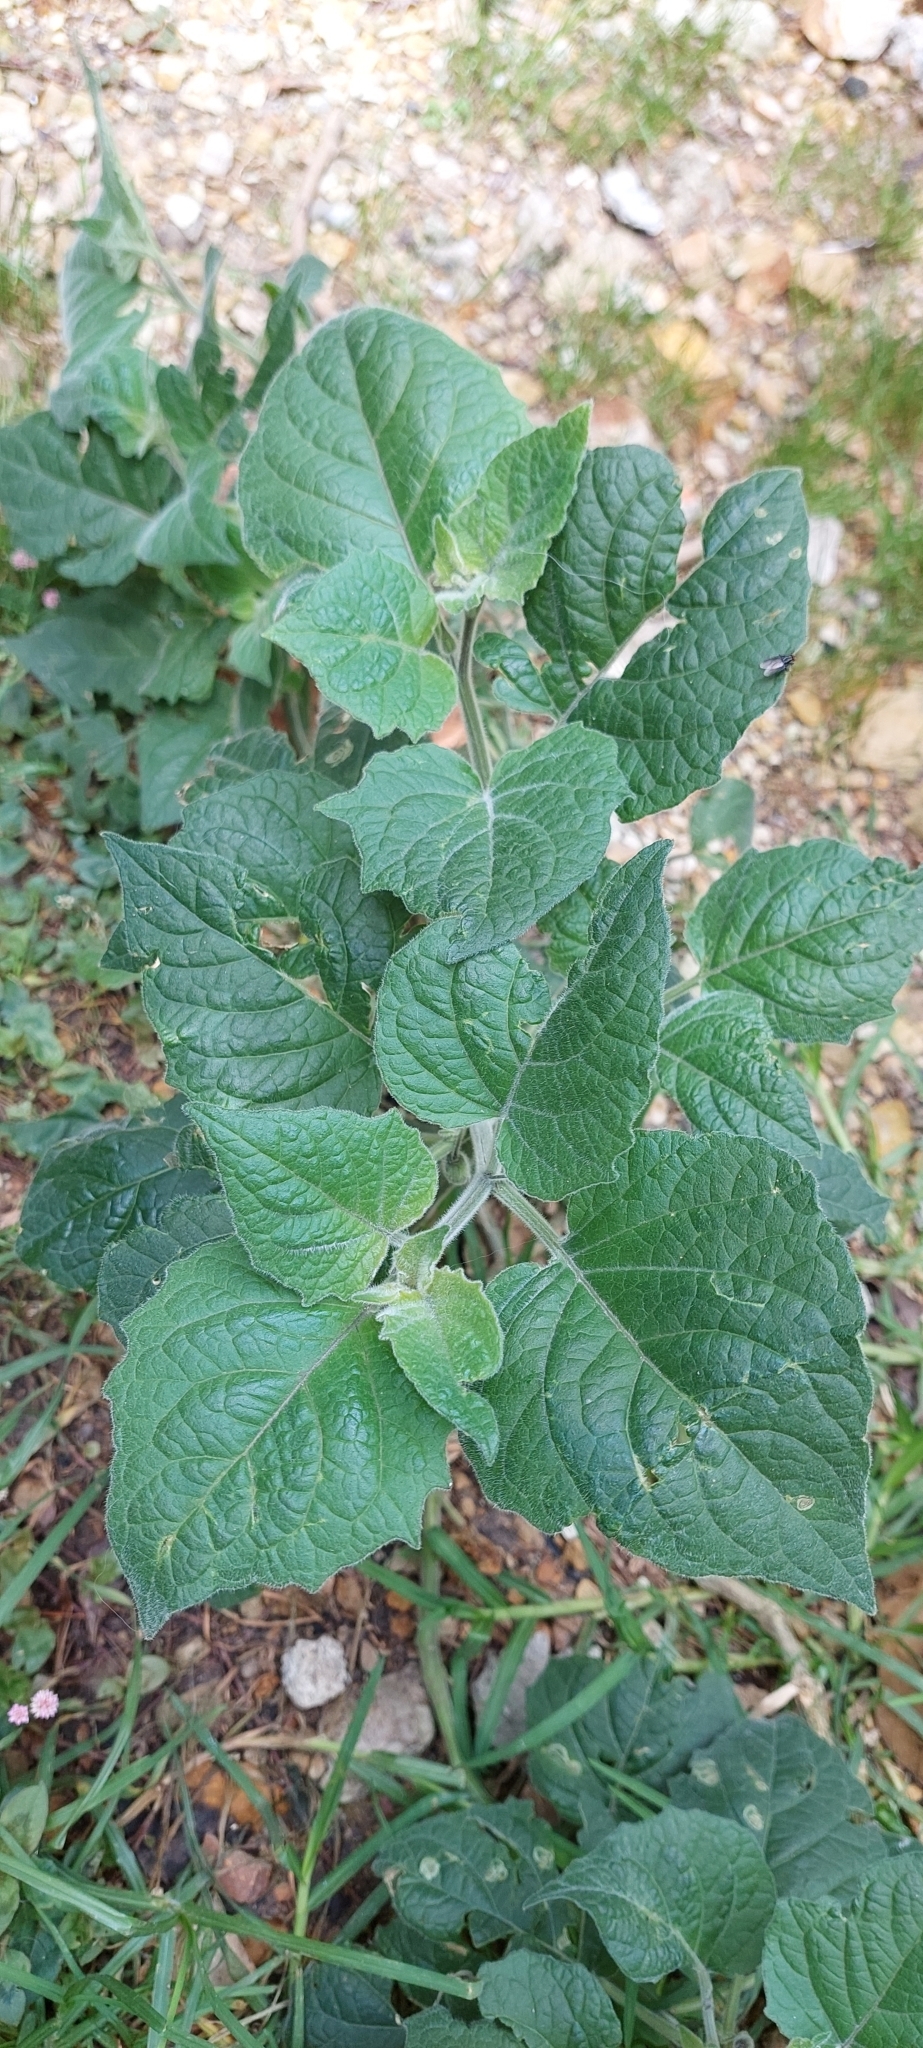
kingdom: Plantae
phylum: Tracheophyta
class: Magnoliopsida
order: Solanales
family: Solanaceae
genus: Physalis
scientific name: Physalis peruviana
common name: Cape-gooseberry
